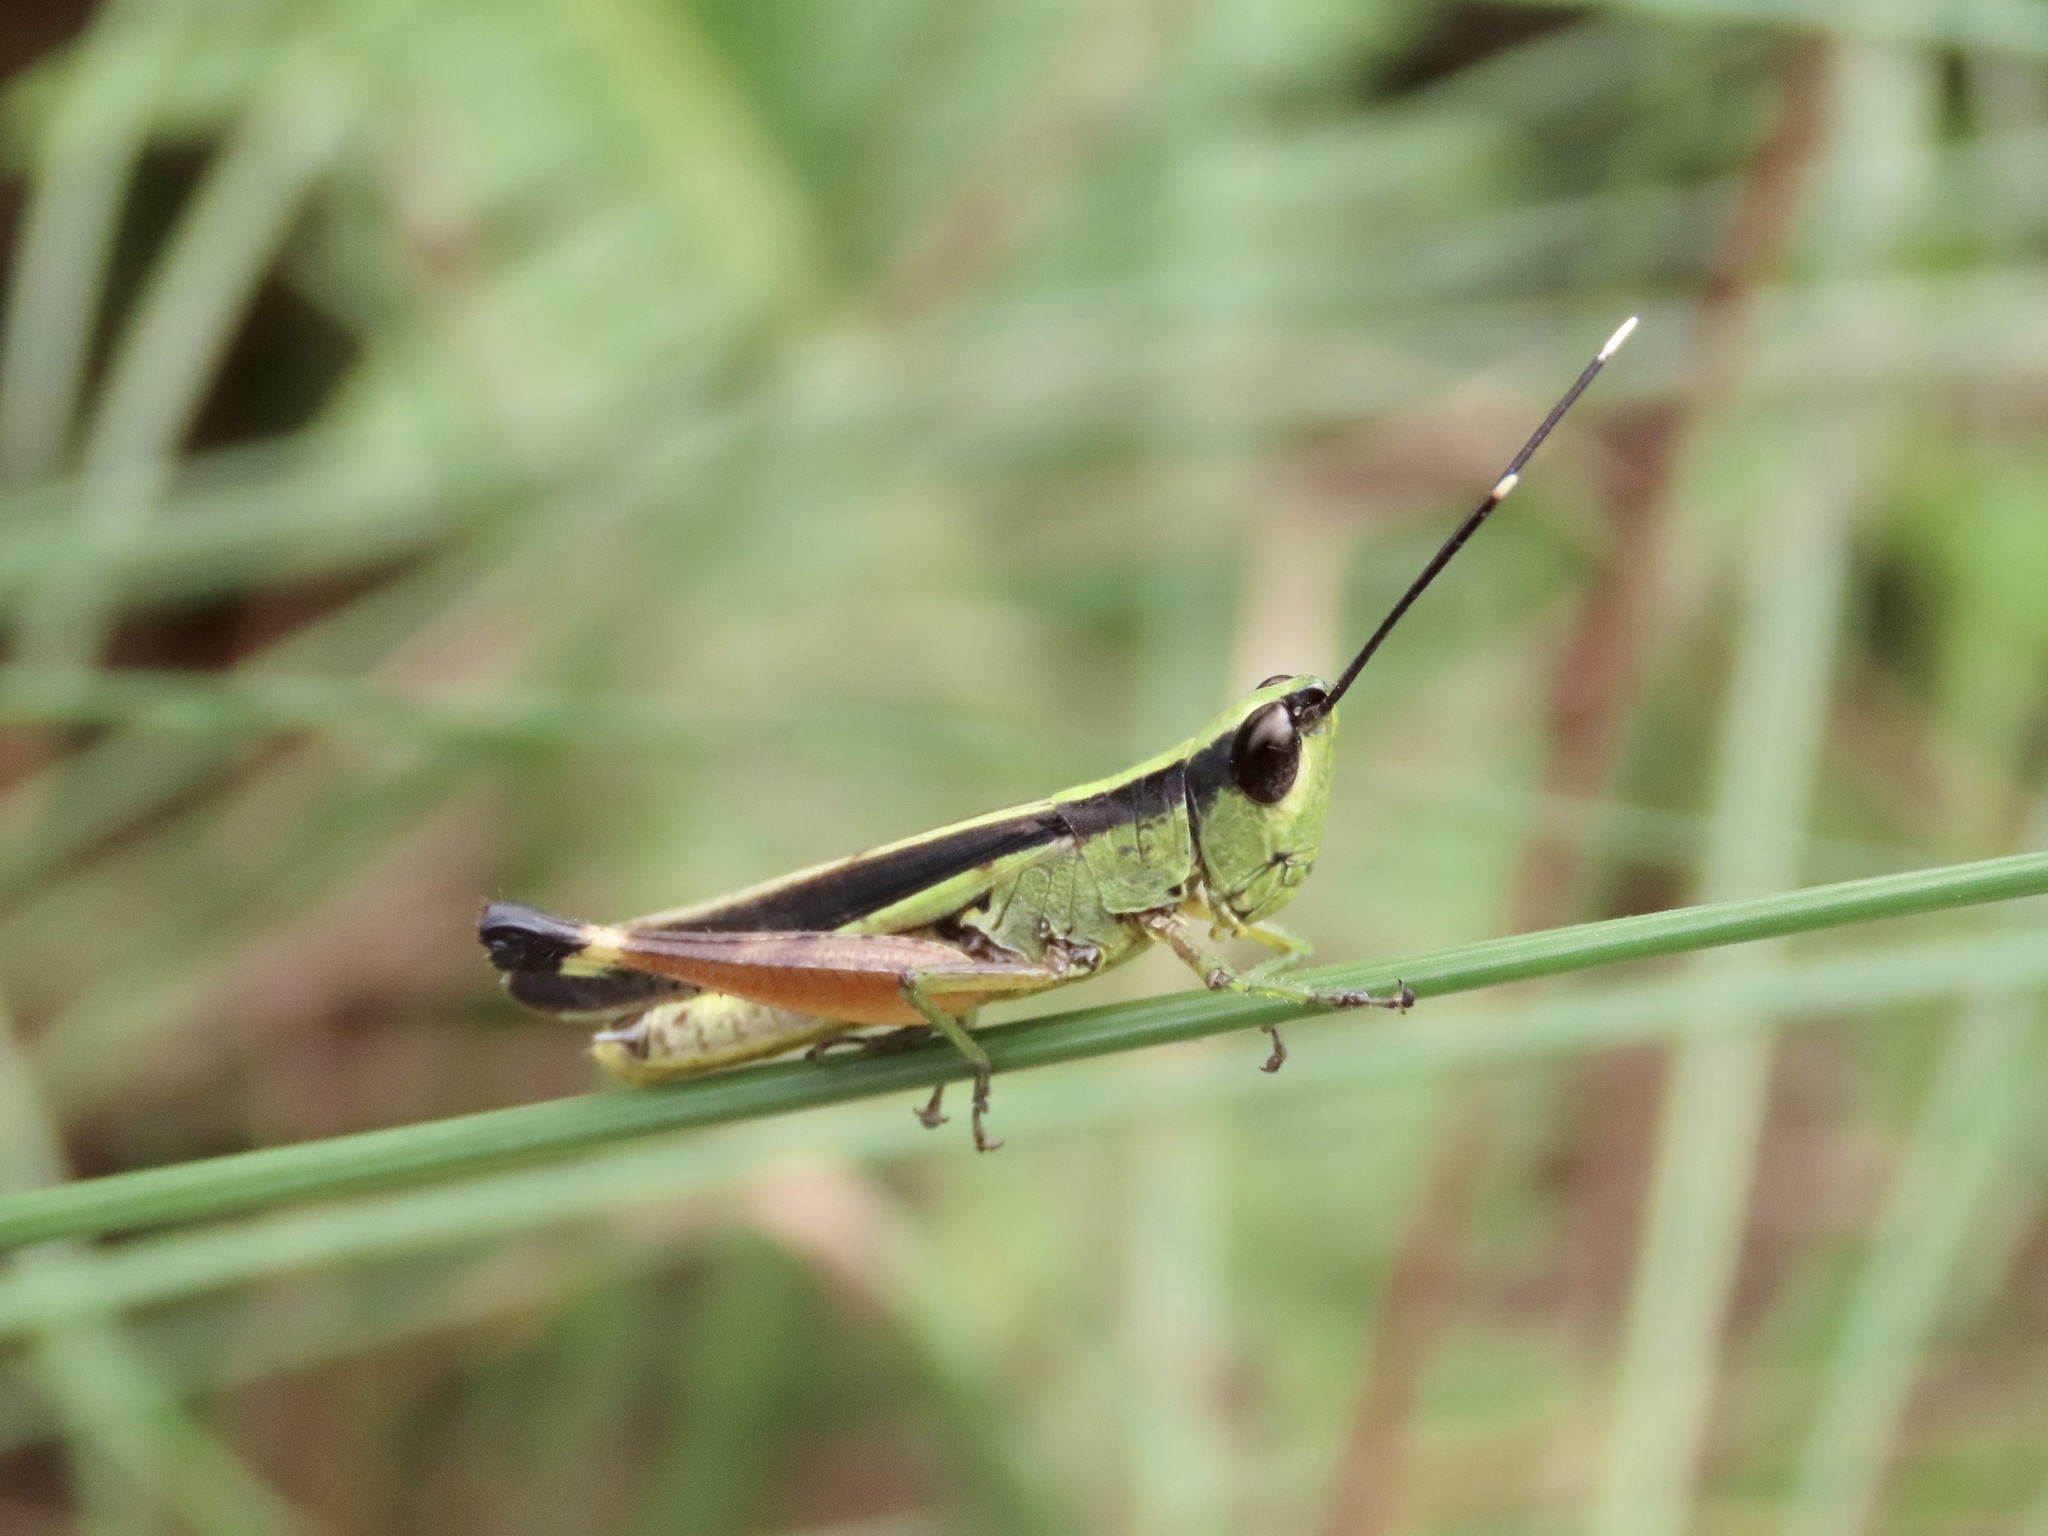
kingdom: Animalia
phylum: Arthropoda
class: Insecta
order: Orthoptera
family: Acrididae
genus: Ceracris
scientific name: Ceracris fasciata
